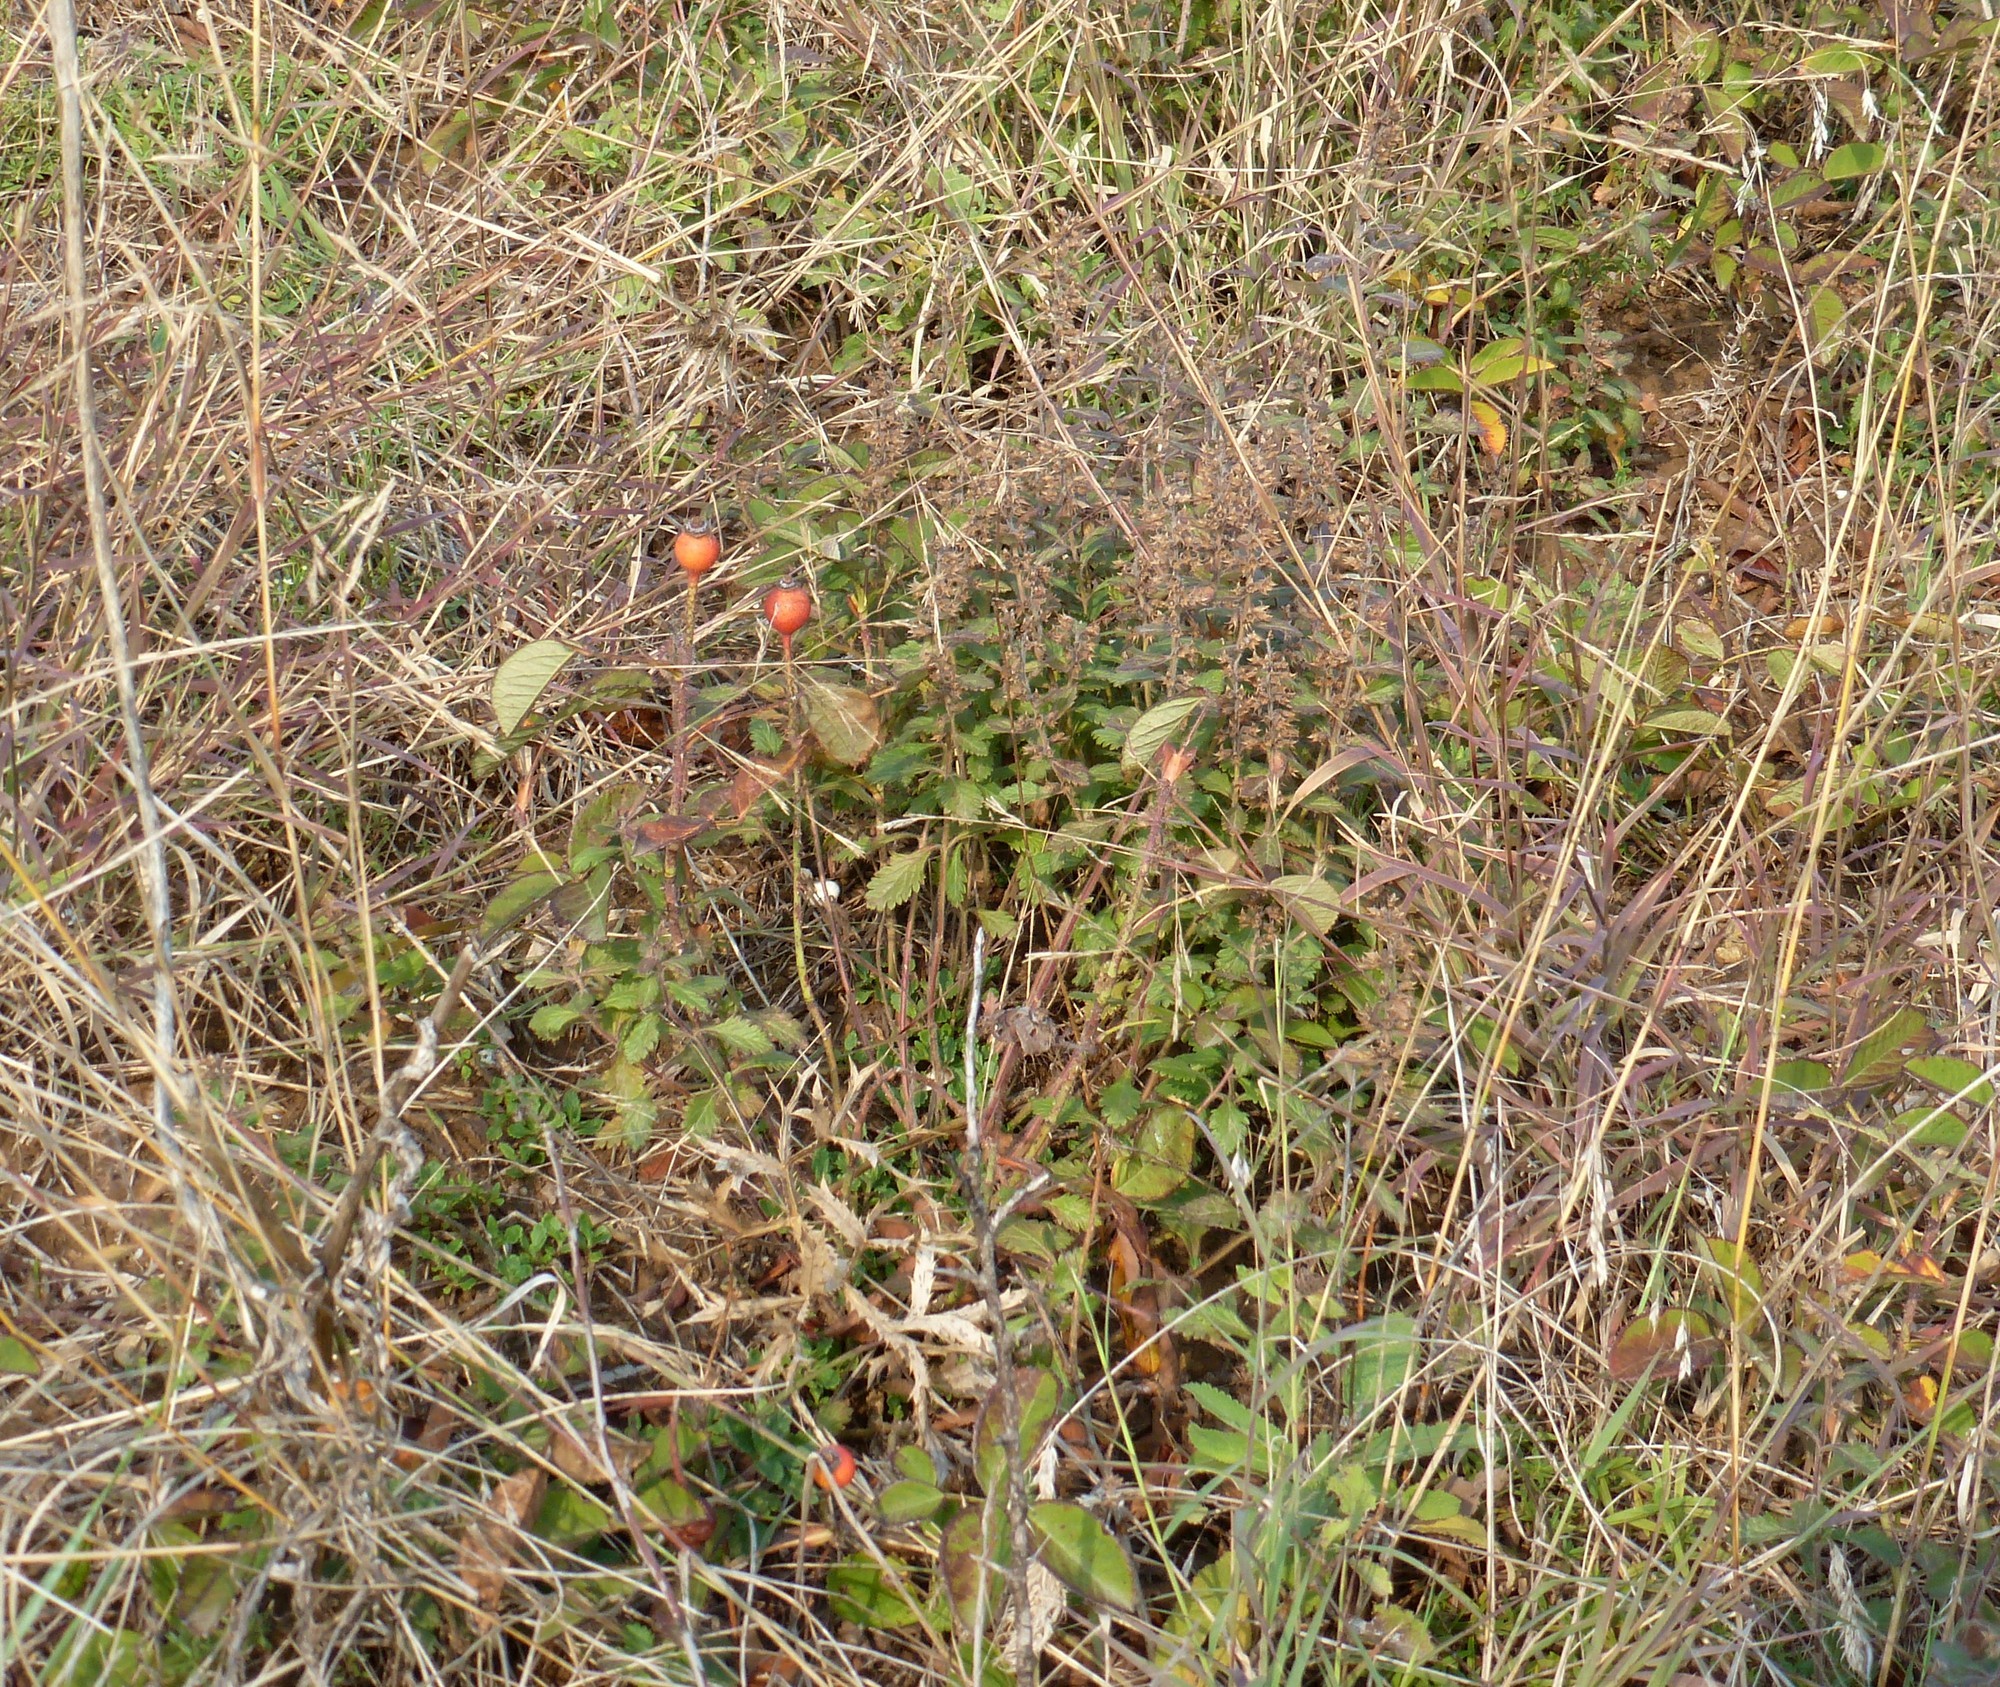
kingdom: Plantae
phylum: Tracheophyta
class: Magnoliopsida
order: Rosales
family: Rosaceae
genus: Rosa
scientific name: Rosa gallica
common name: French rose
